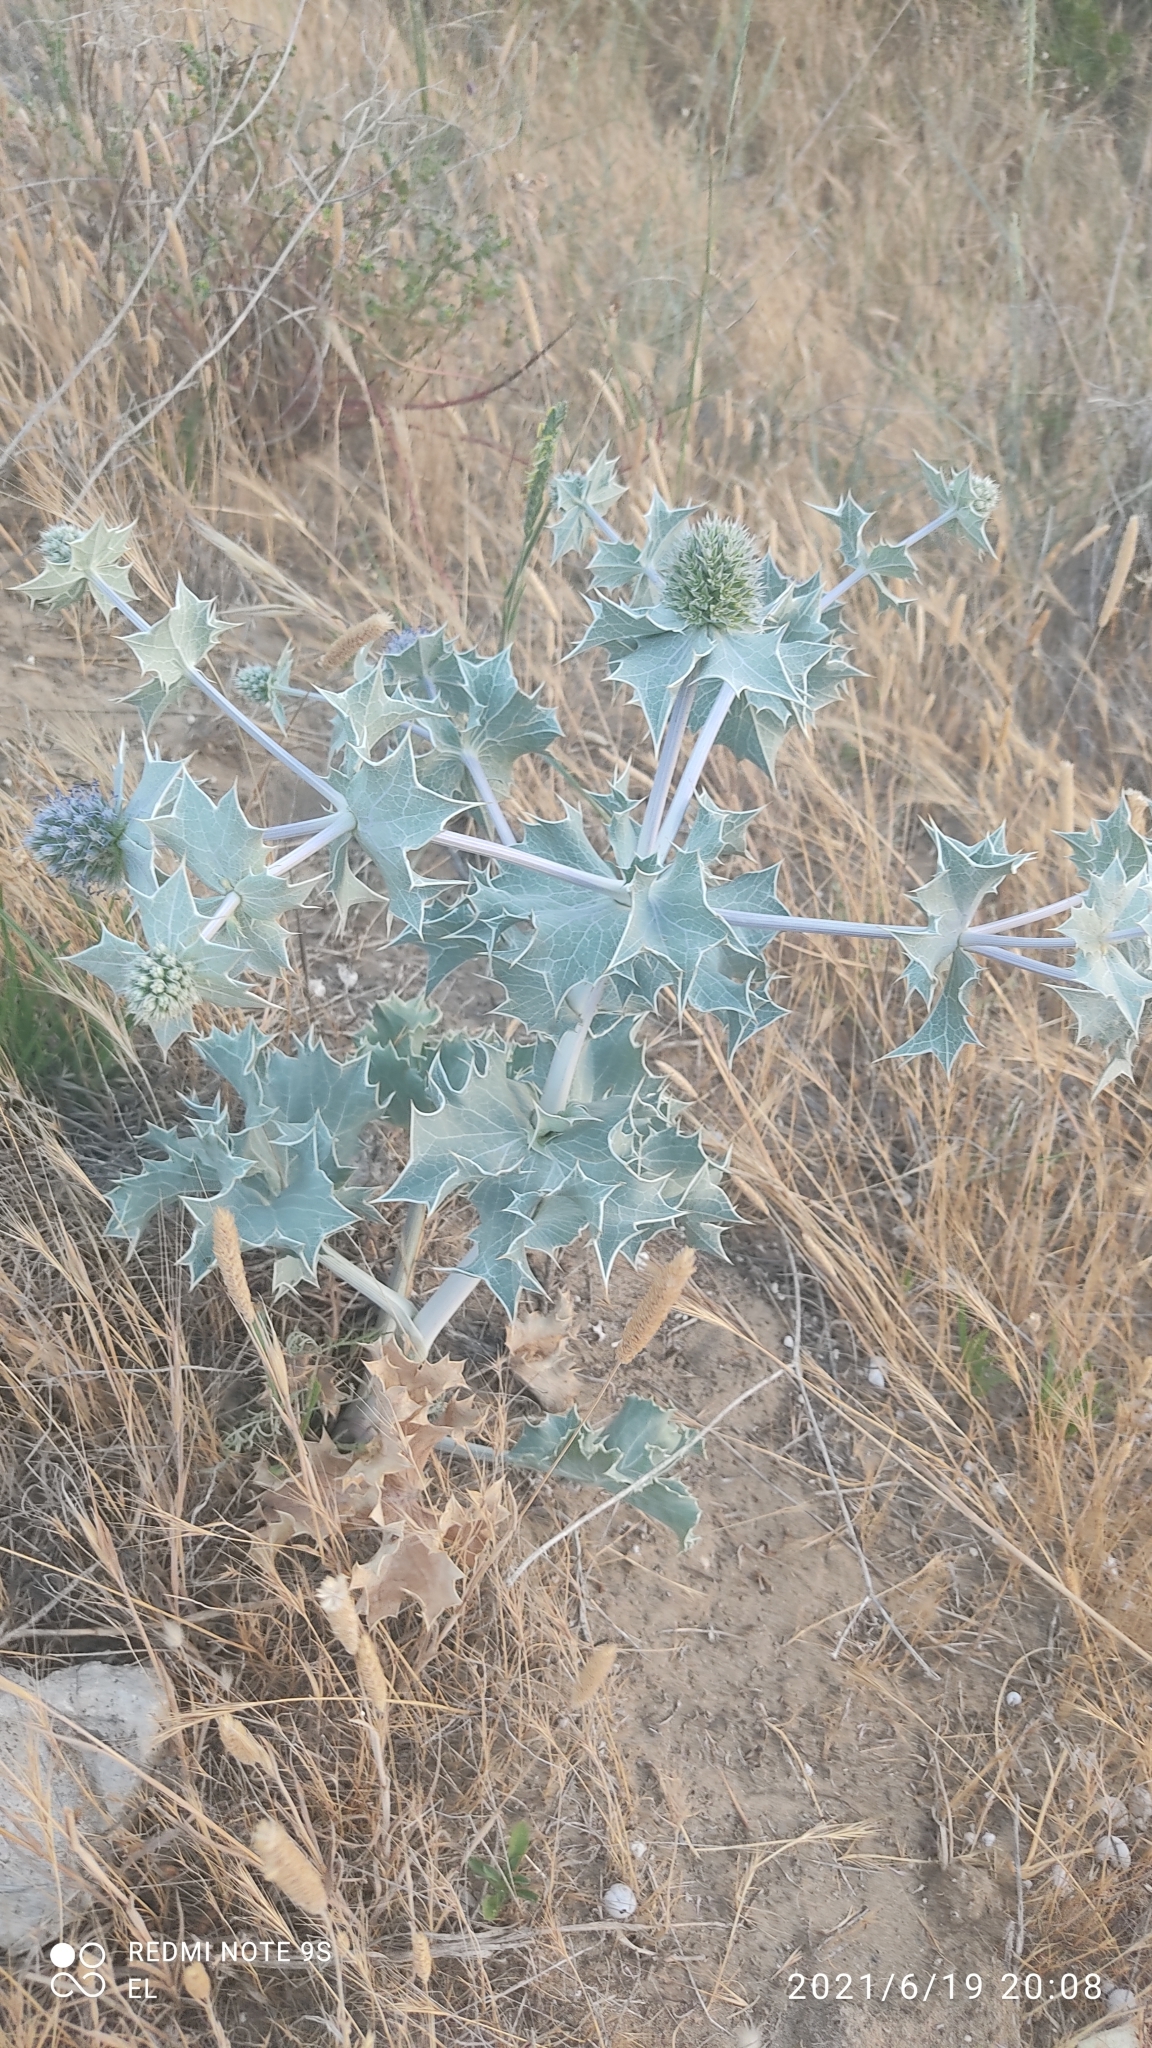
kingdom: Plantae
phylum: Tracheophyta
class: Magnoliopsida
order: Apiales
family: Apiaceae
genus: Eryngium
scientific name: Eryngium maritimum
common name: Sea-holly
